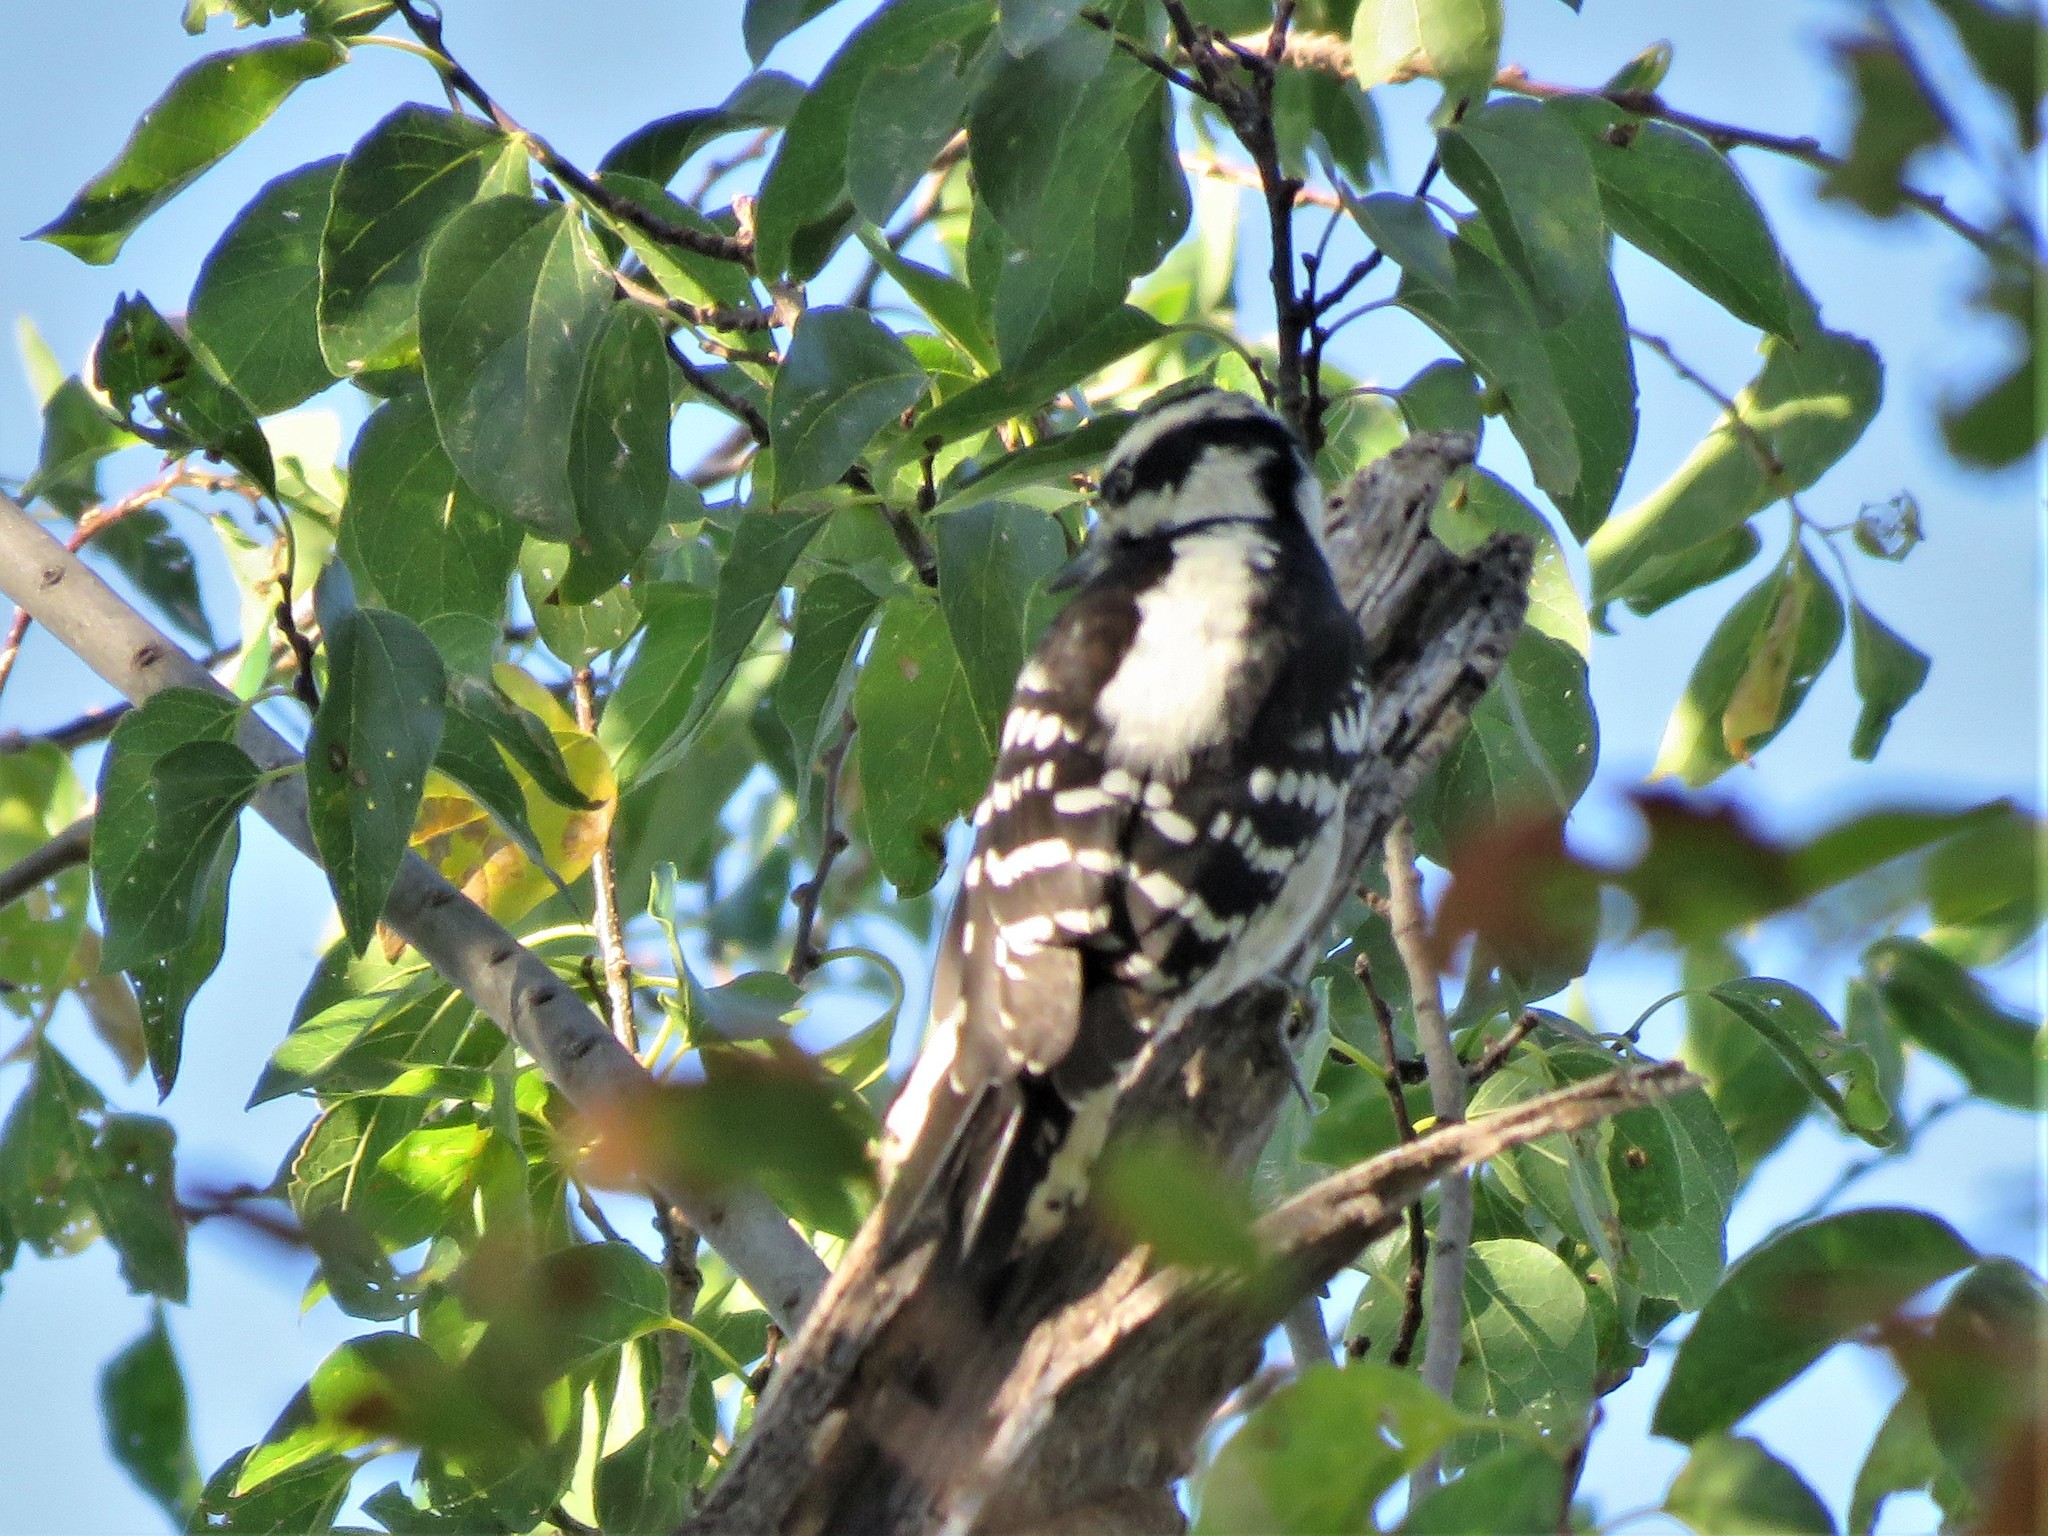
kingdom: Animalia
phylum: Chordata
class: Aves
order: Piciformes
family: Picidae
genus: Dryobates
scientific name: Dryobates pubescens
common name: Downy woodpecker
